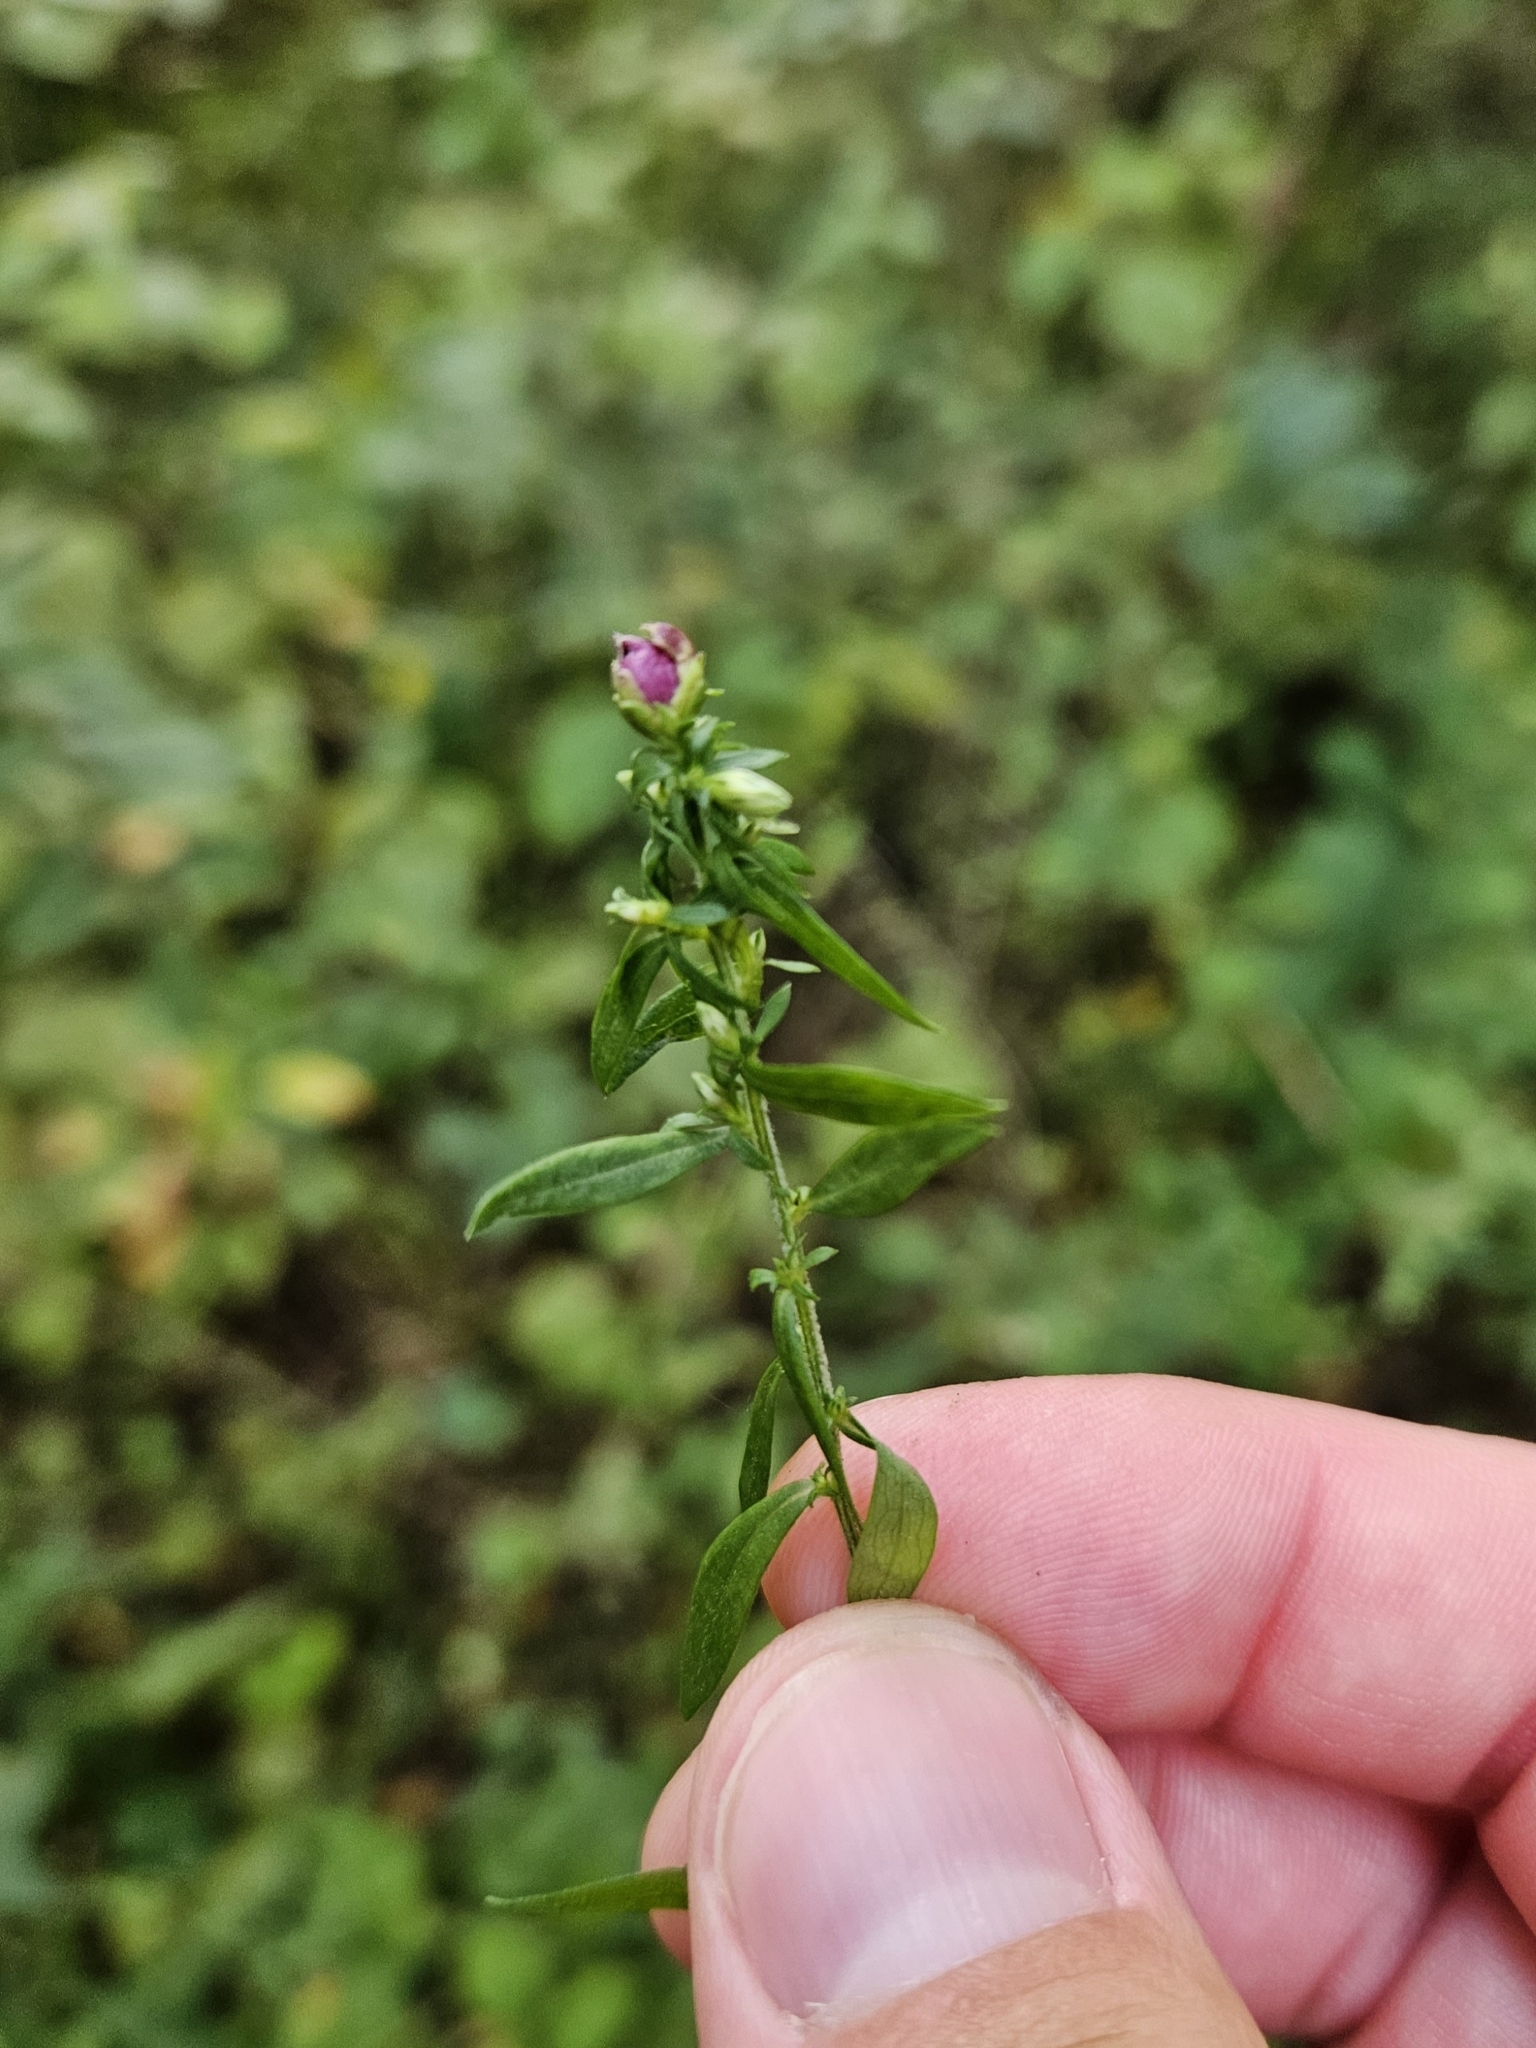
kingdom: Animalia
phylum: Arthropoda
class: Insecta
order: Diptera
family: Cecidomyiidae
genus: Asphondylia
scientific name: Asphondylia imbricata
